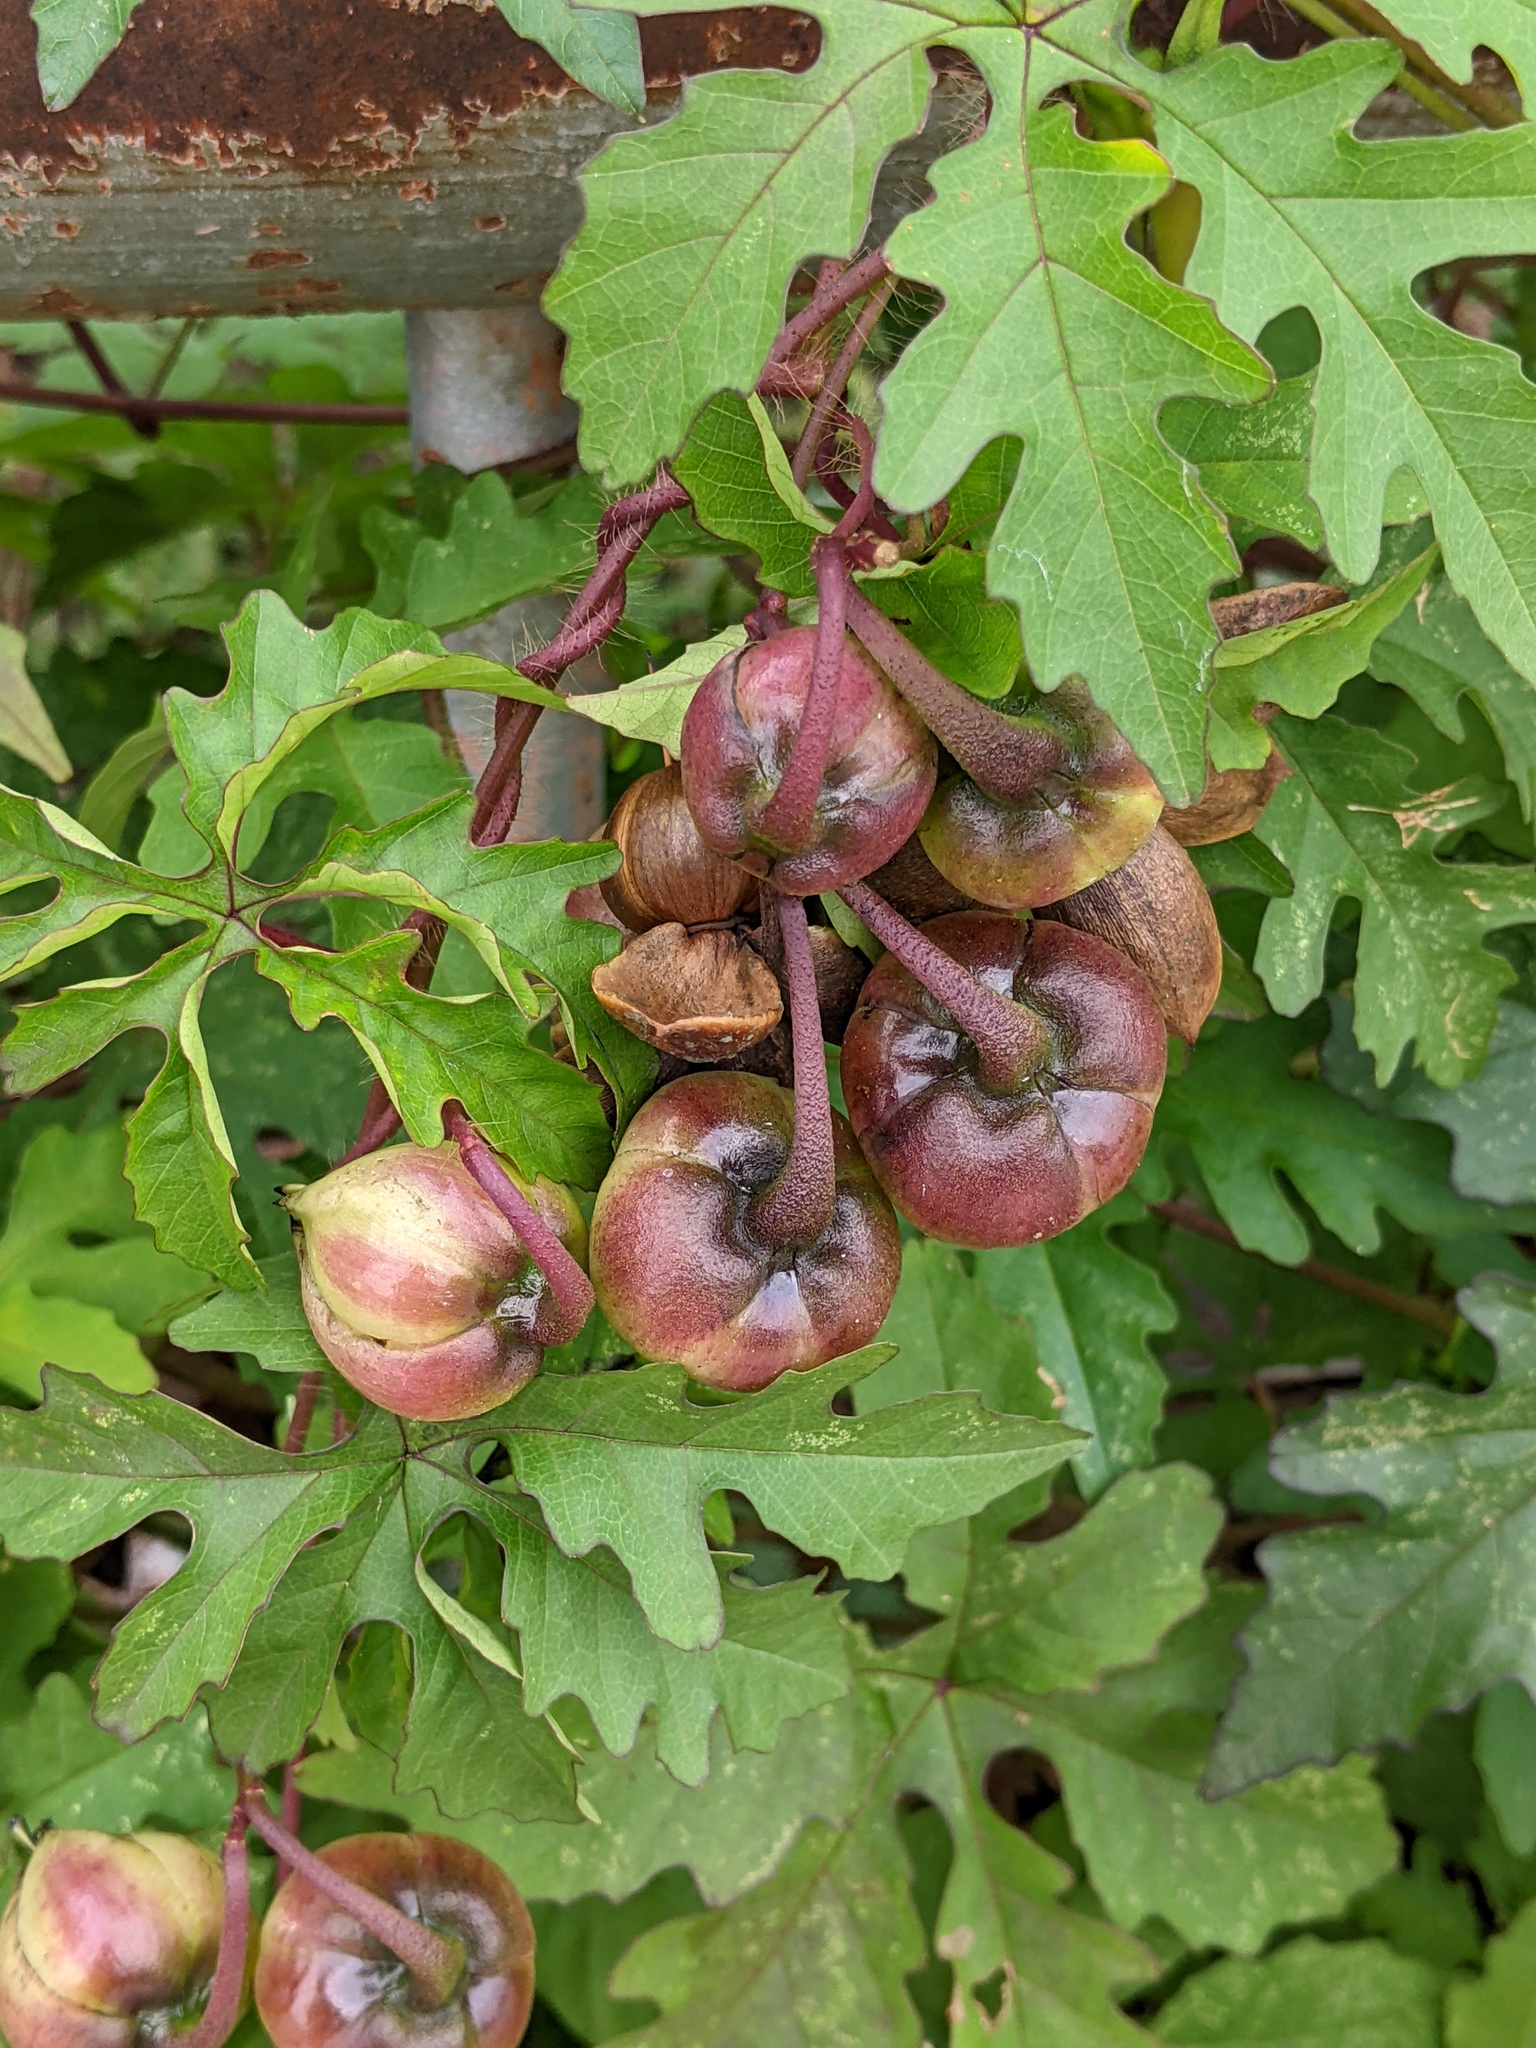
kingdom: Plantae
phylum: Tracheophyta
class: Magnoliopsida
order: Solanales
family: Convolvulaceae
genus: Distimake
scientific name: Distimake dissectus
